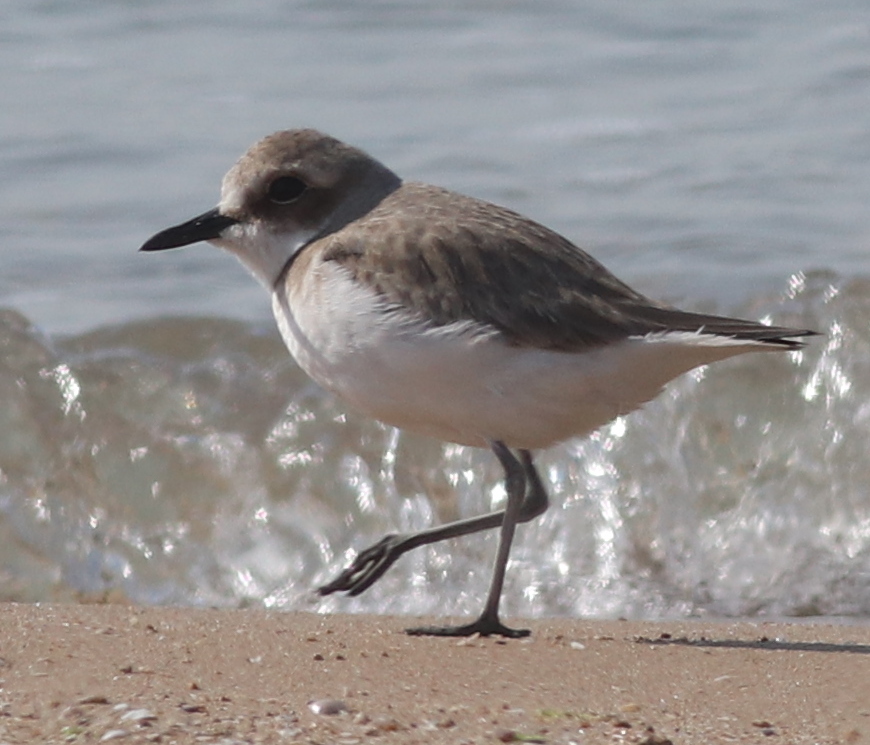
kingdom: Animalia
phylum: Chordata
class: Aves
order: Charadriiformes
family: Charadriidae
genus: Charadrius
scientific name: Charadrius leschenaultii
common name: Greater sand plover
